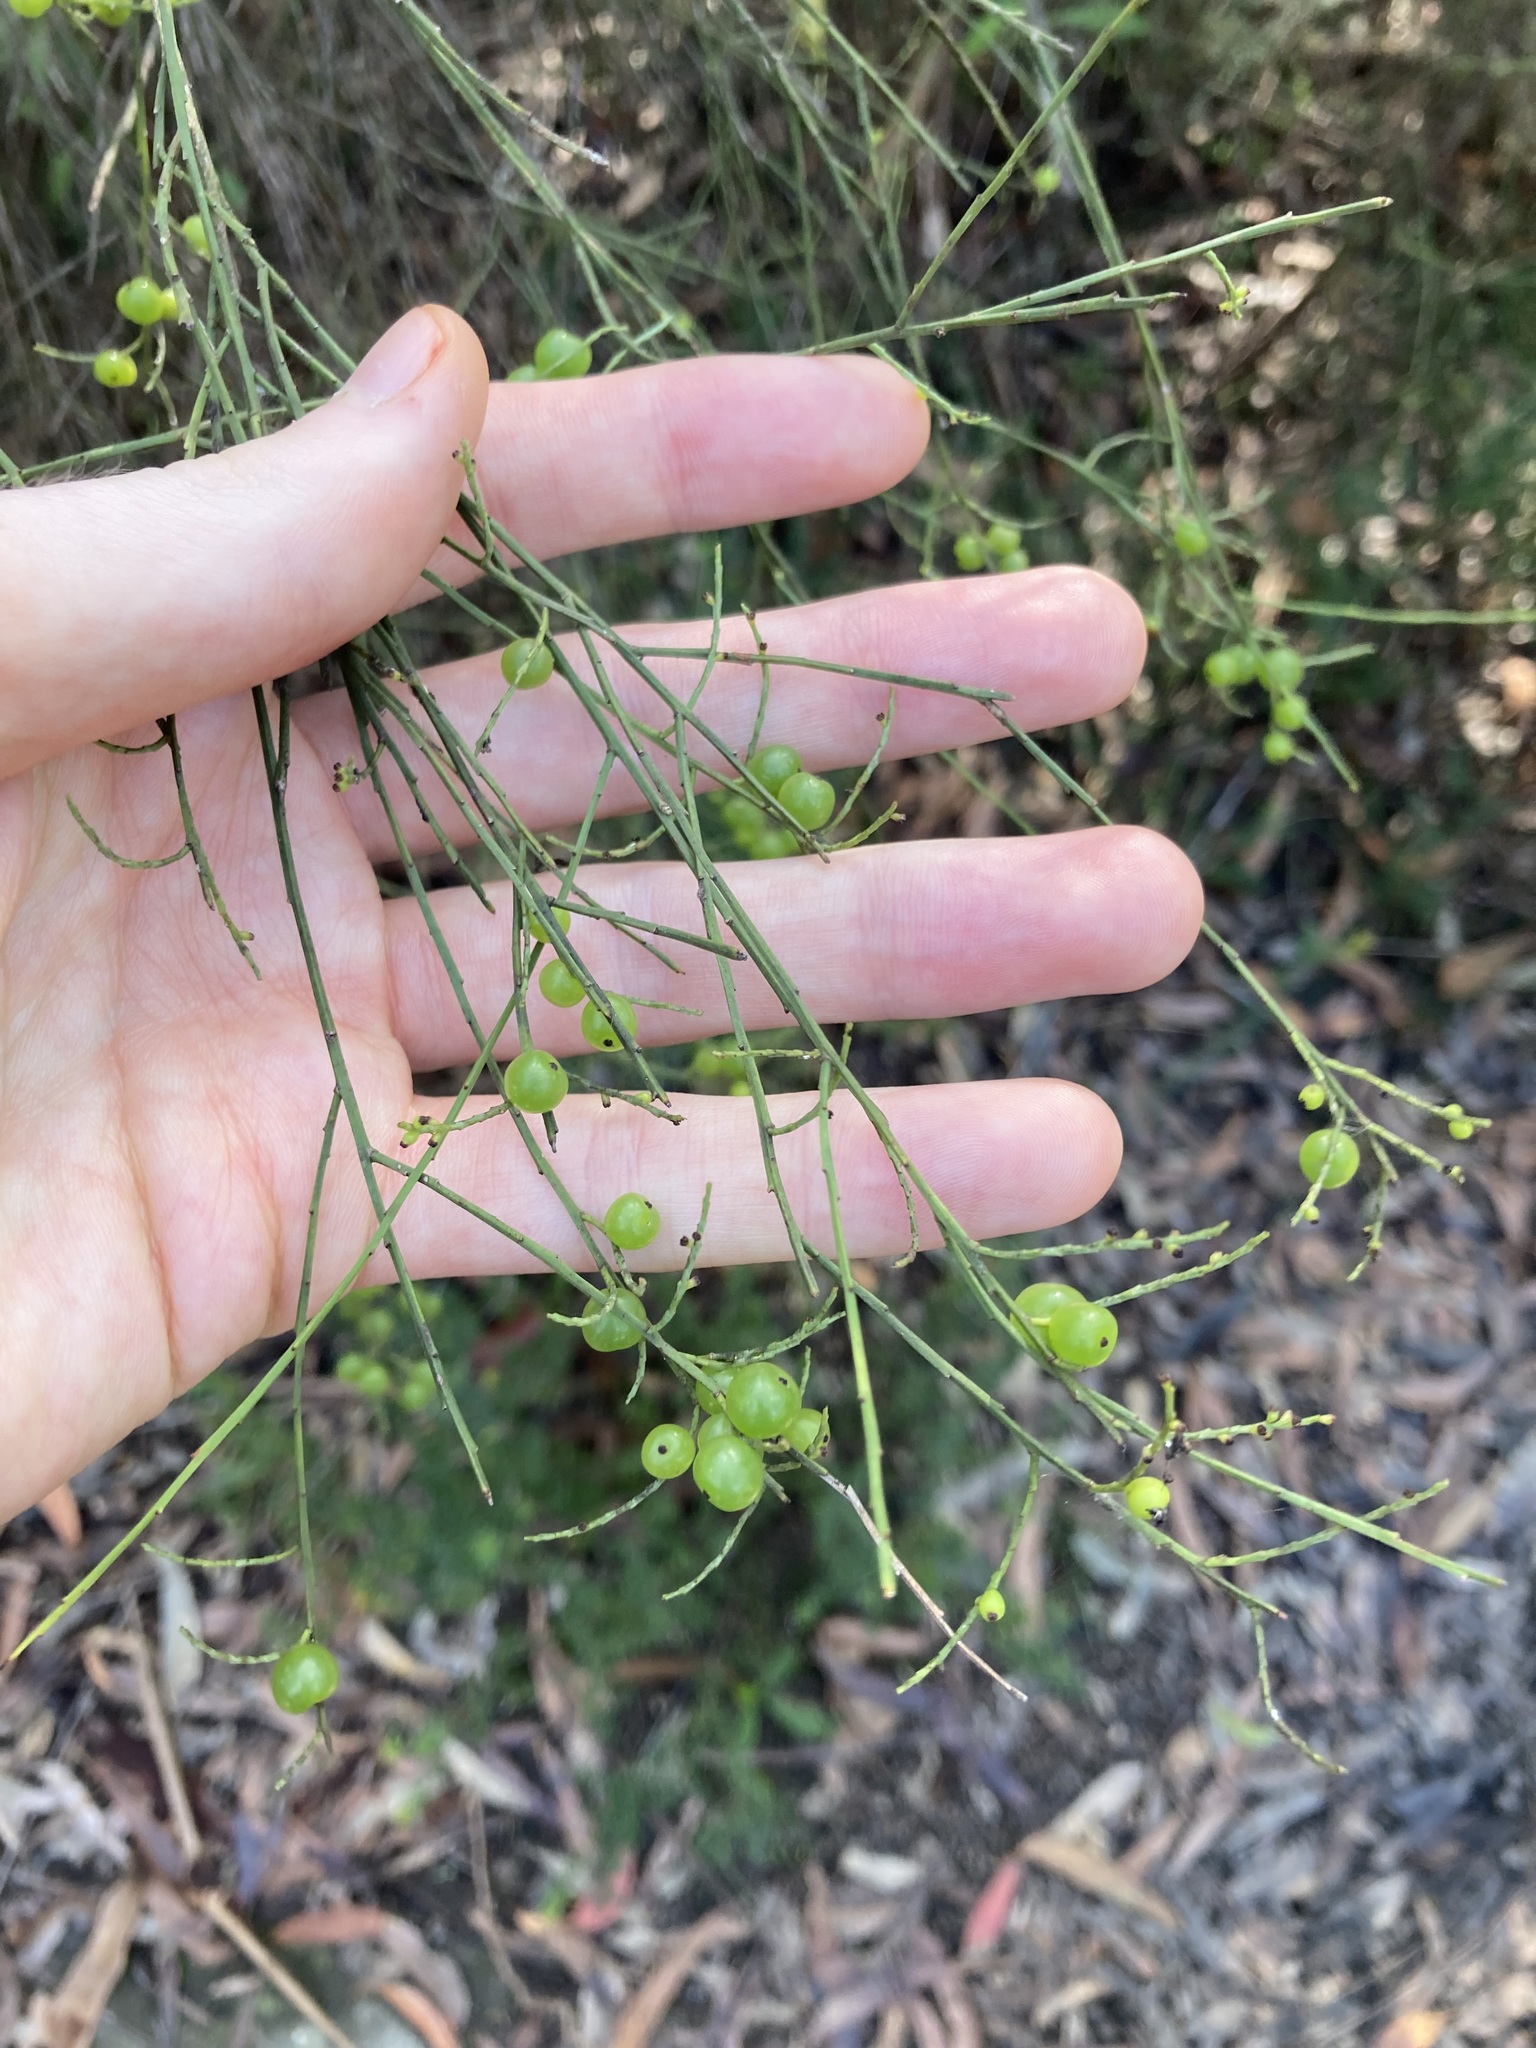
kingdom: Plantae
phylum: Tracheophyta
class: Magnoliopsida
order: Santalales
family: Amphorogynaceae
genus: Leptomeria
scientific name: Leptomeria acida
